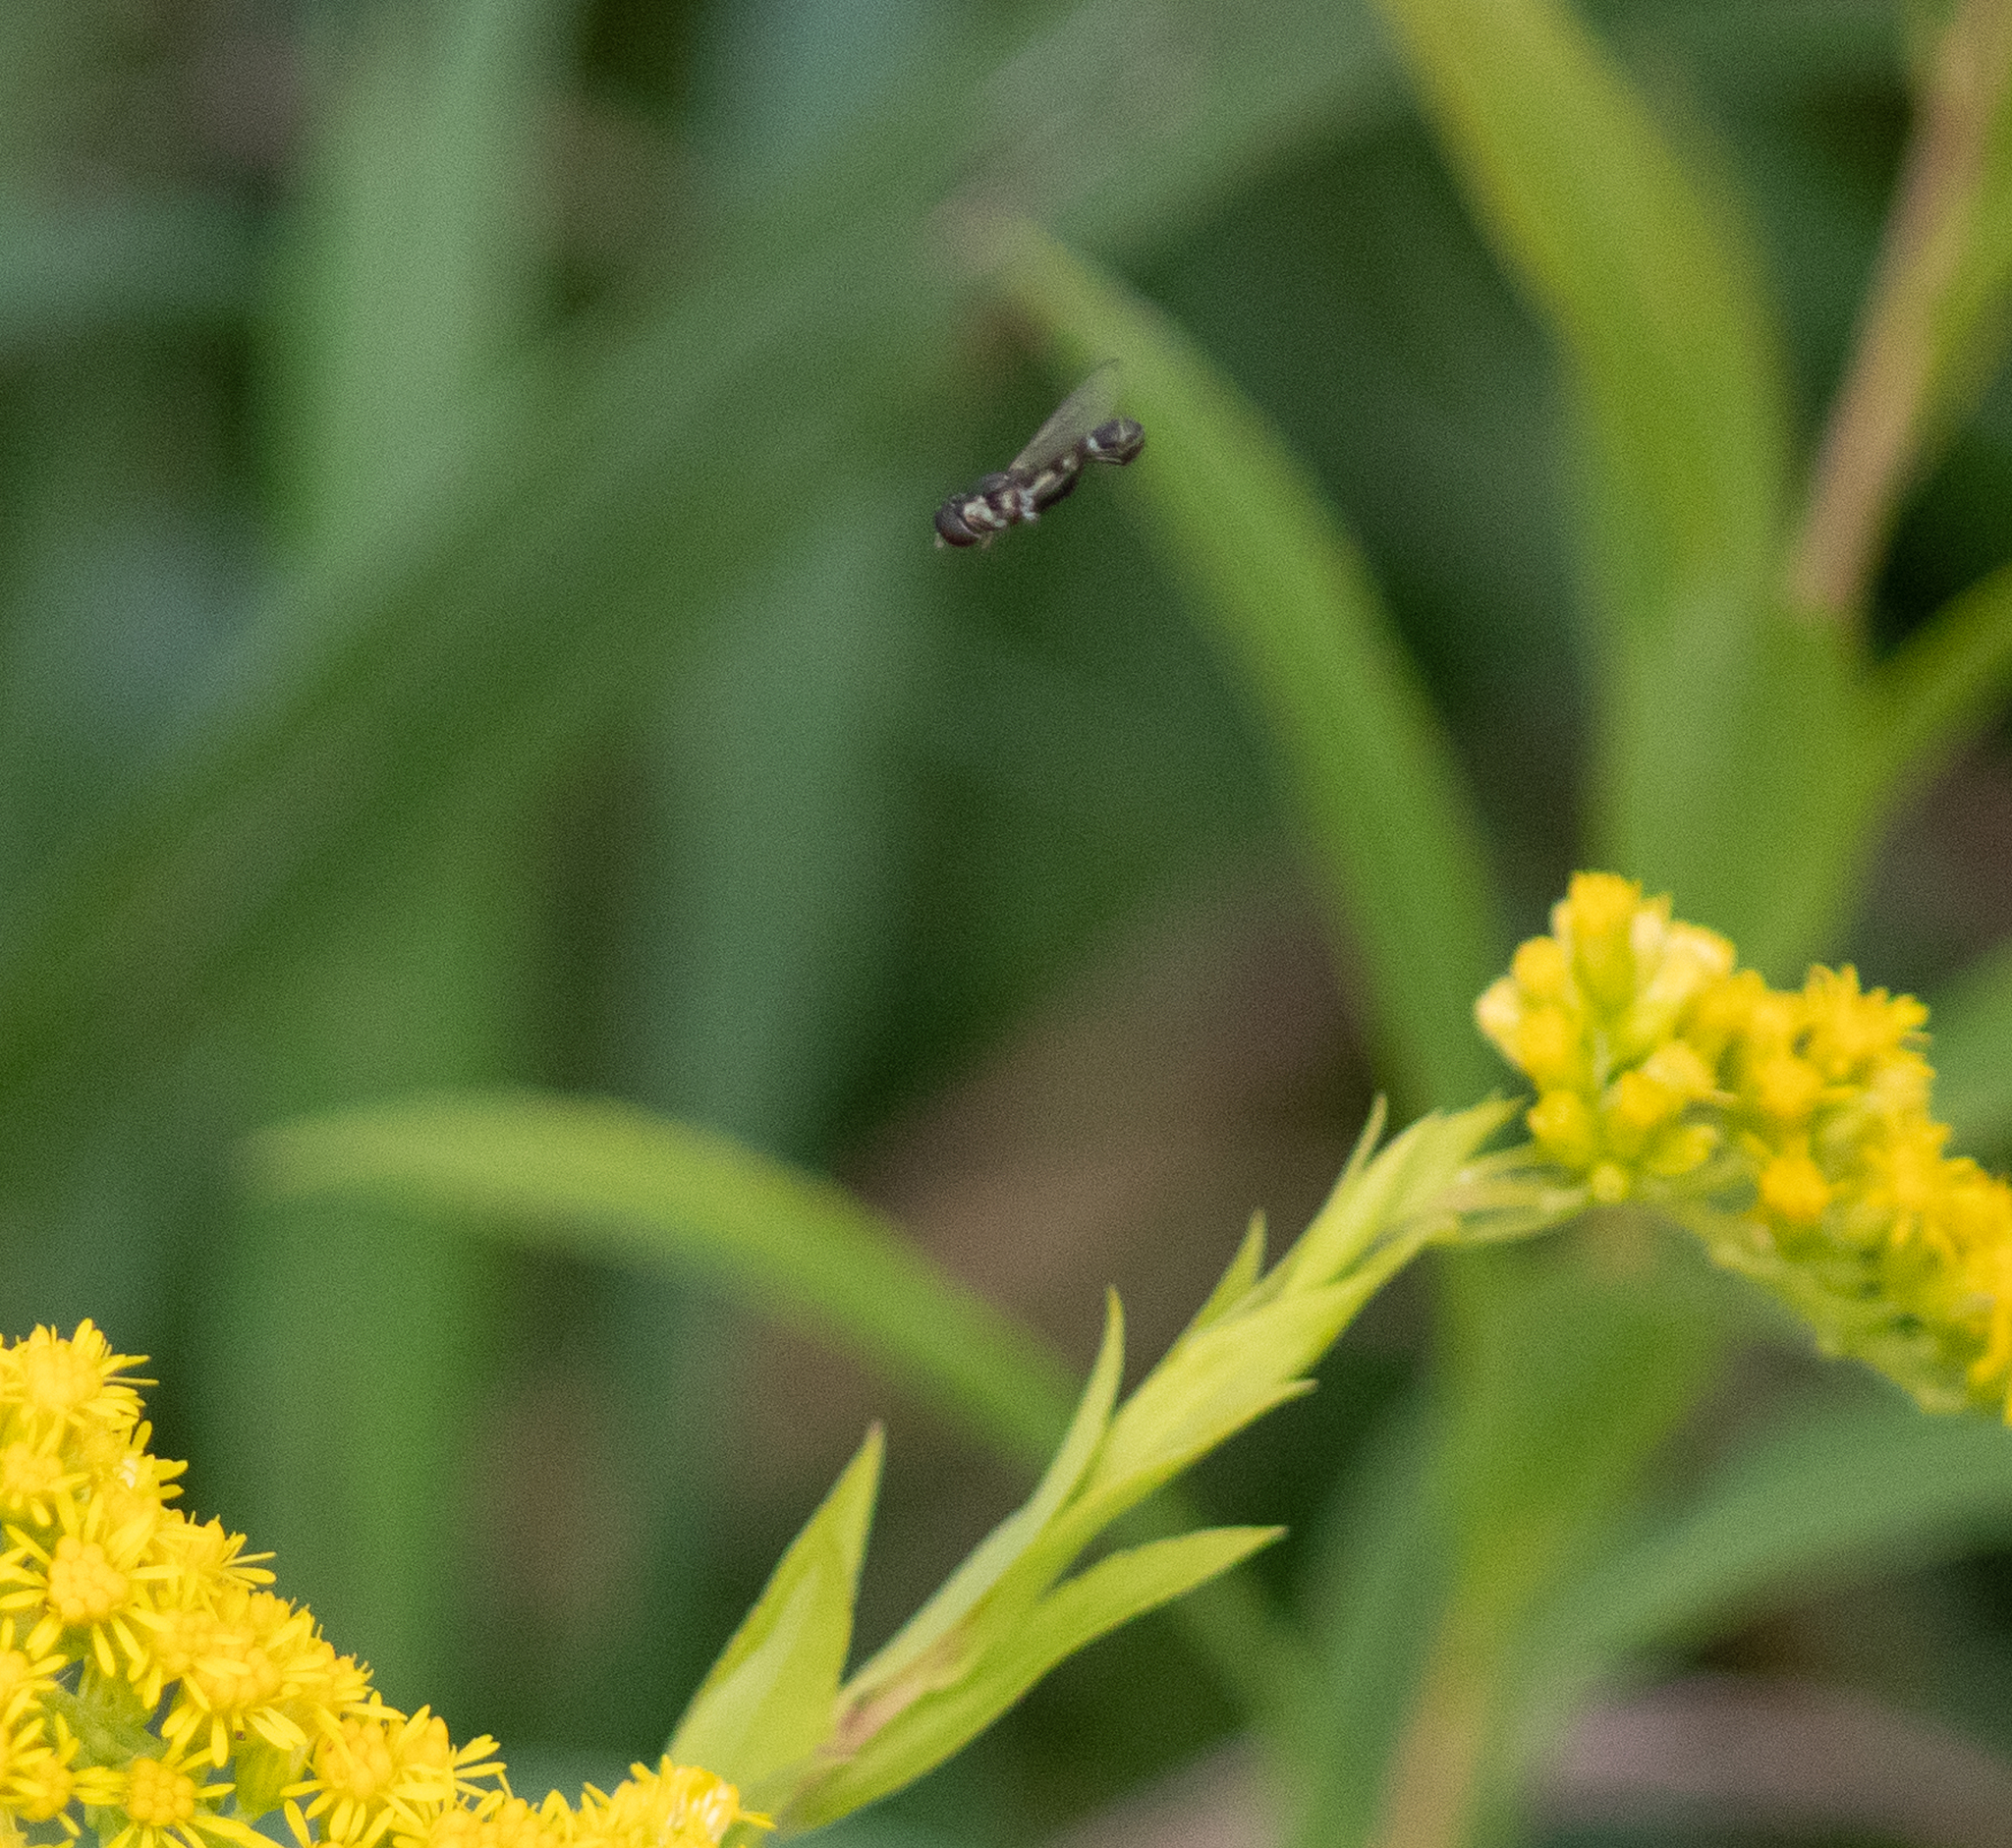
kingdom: Animalia
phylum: Arthropoda
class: Insecta
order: Diptera
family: Syrphidae
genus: Syritta
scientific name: Syritta pipiens
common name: Hover fly
